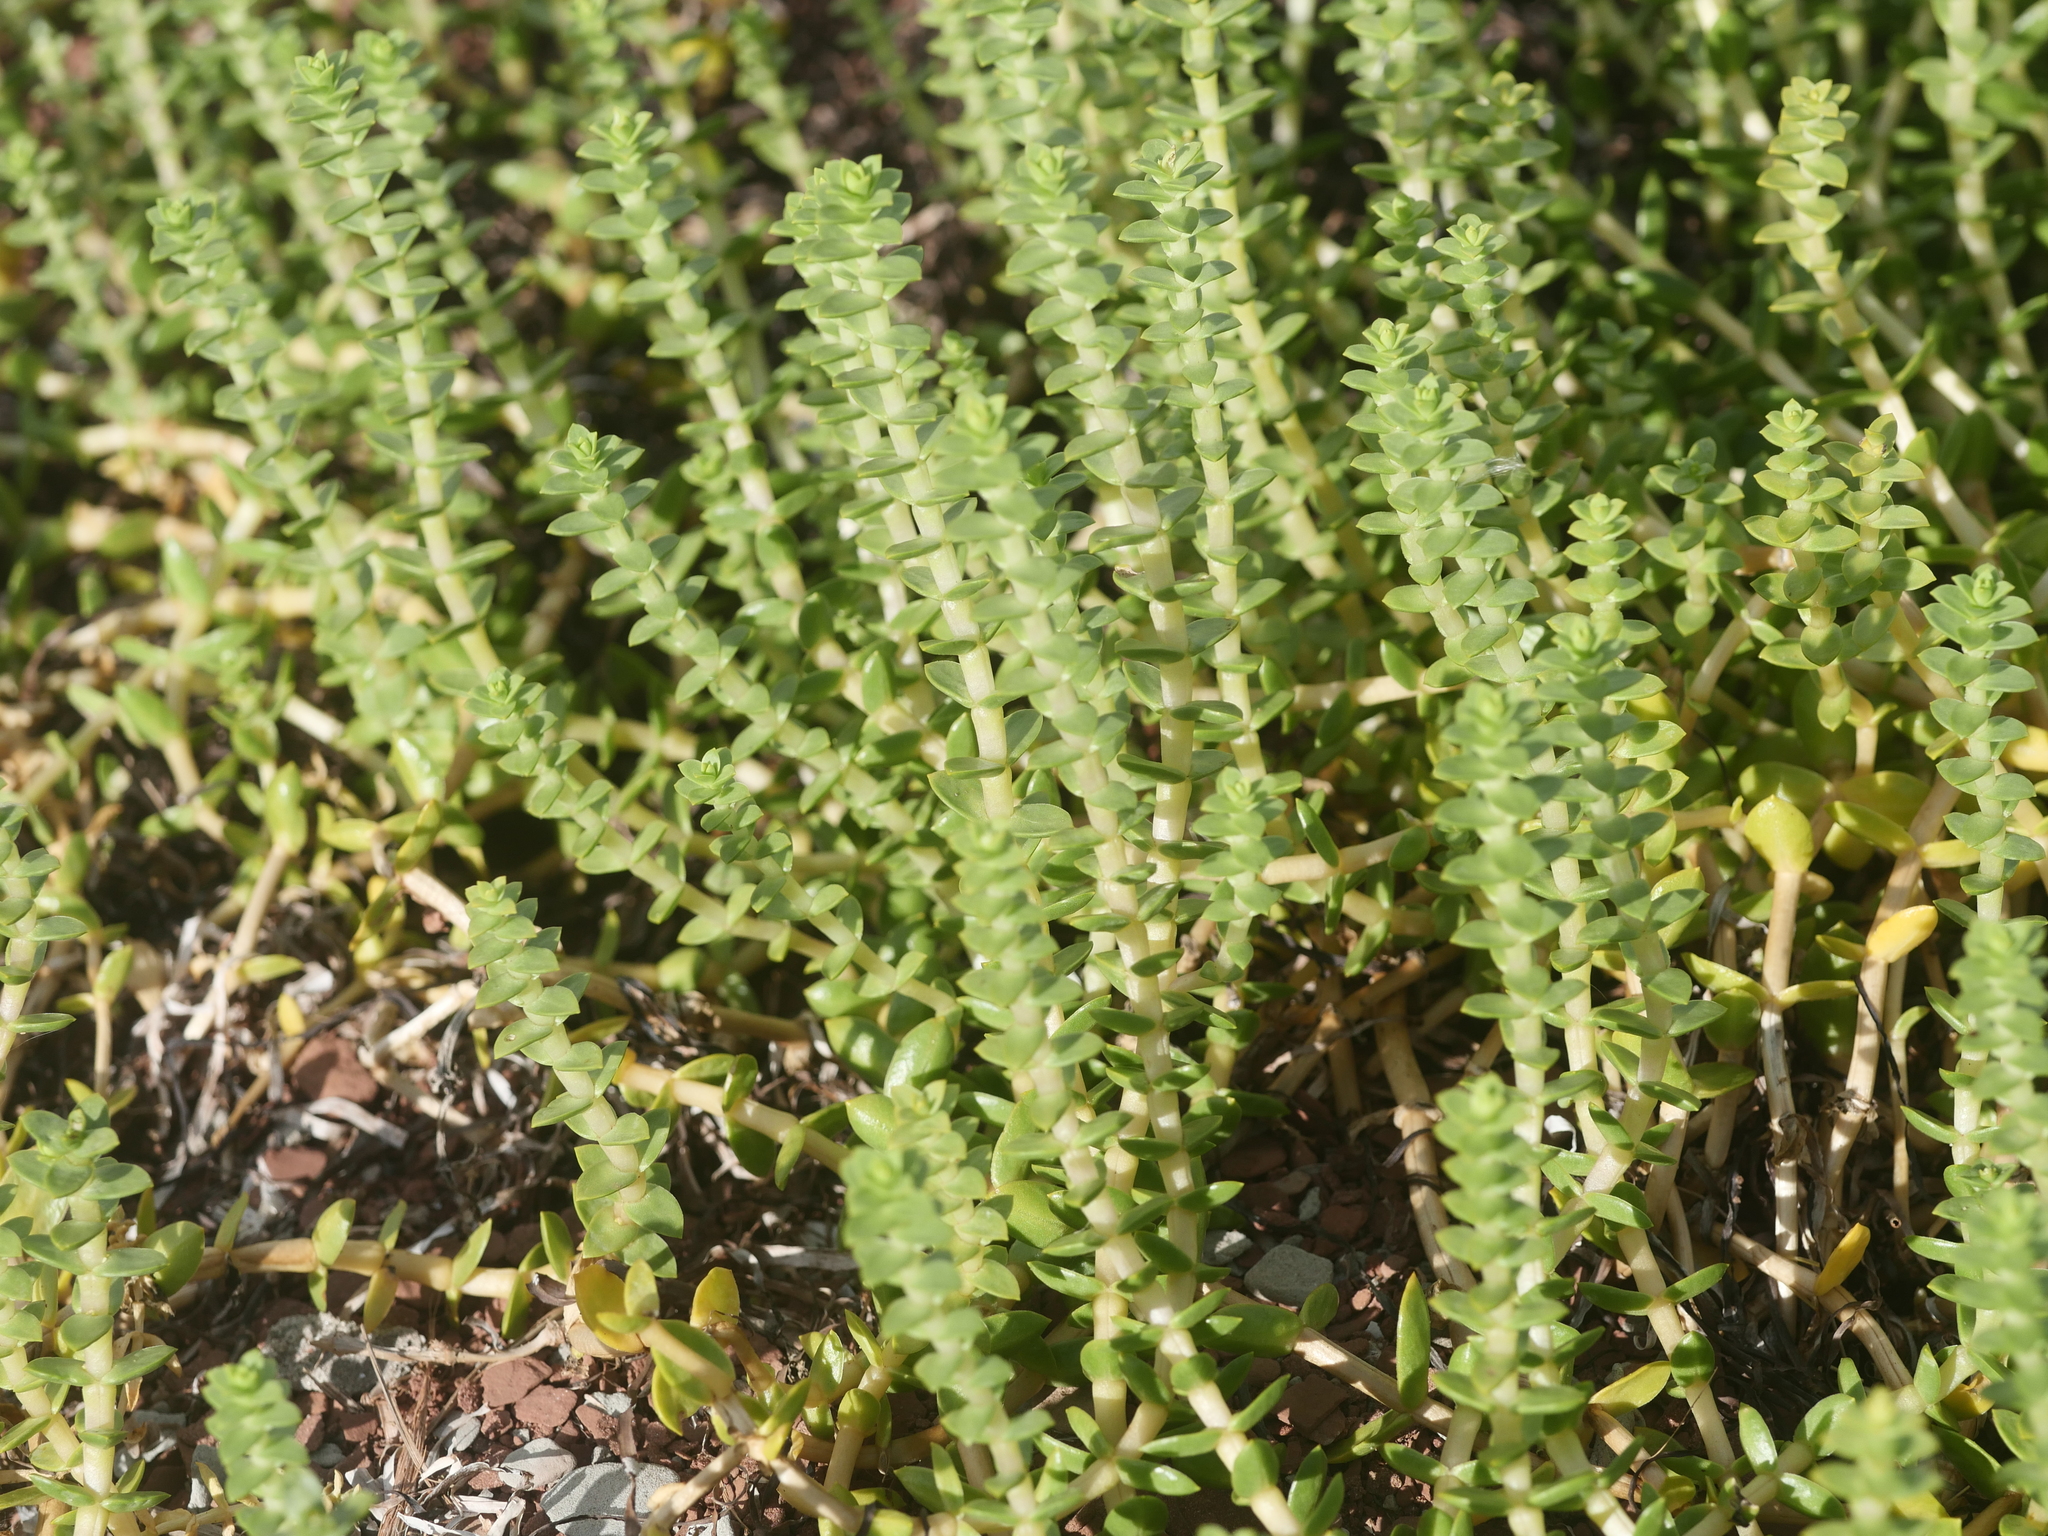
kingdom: Plantae
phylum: Tracheophyta
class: Magnoliopsida
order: Caryophyllales
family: Caryophyllaceae
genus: Honckenya
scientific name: Honckenya peploides
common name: Sea sandwort
